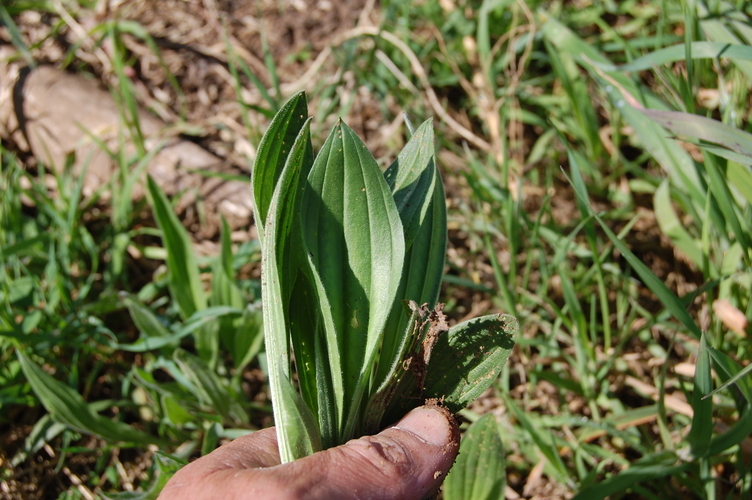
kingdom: Plantae
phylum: Tracheophyta
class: Magnoliopsida
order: Lamiales
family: Plantaginaceae
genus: Plantago
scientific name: Plantago lanceolata
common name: Ribwort plantain
